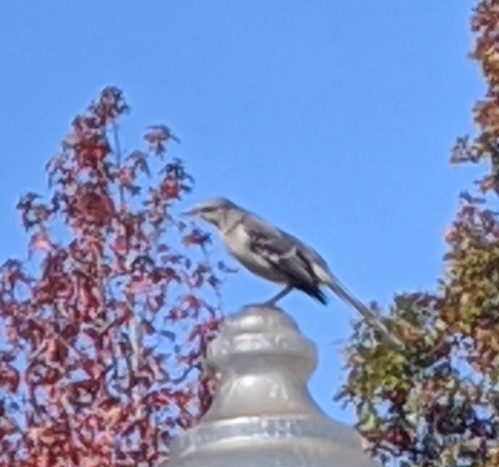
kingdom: Animalia
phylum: Chordata
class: Aves
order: Passeriformes
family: Mimidae
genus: Mimus
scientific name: Mimus polyglottos
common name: Northern mockingbird
